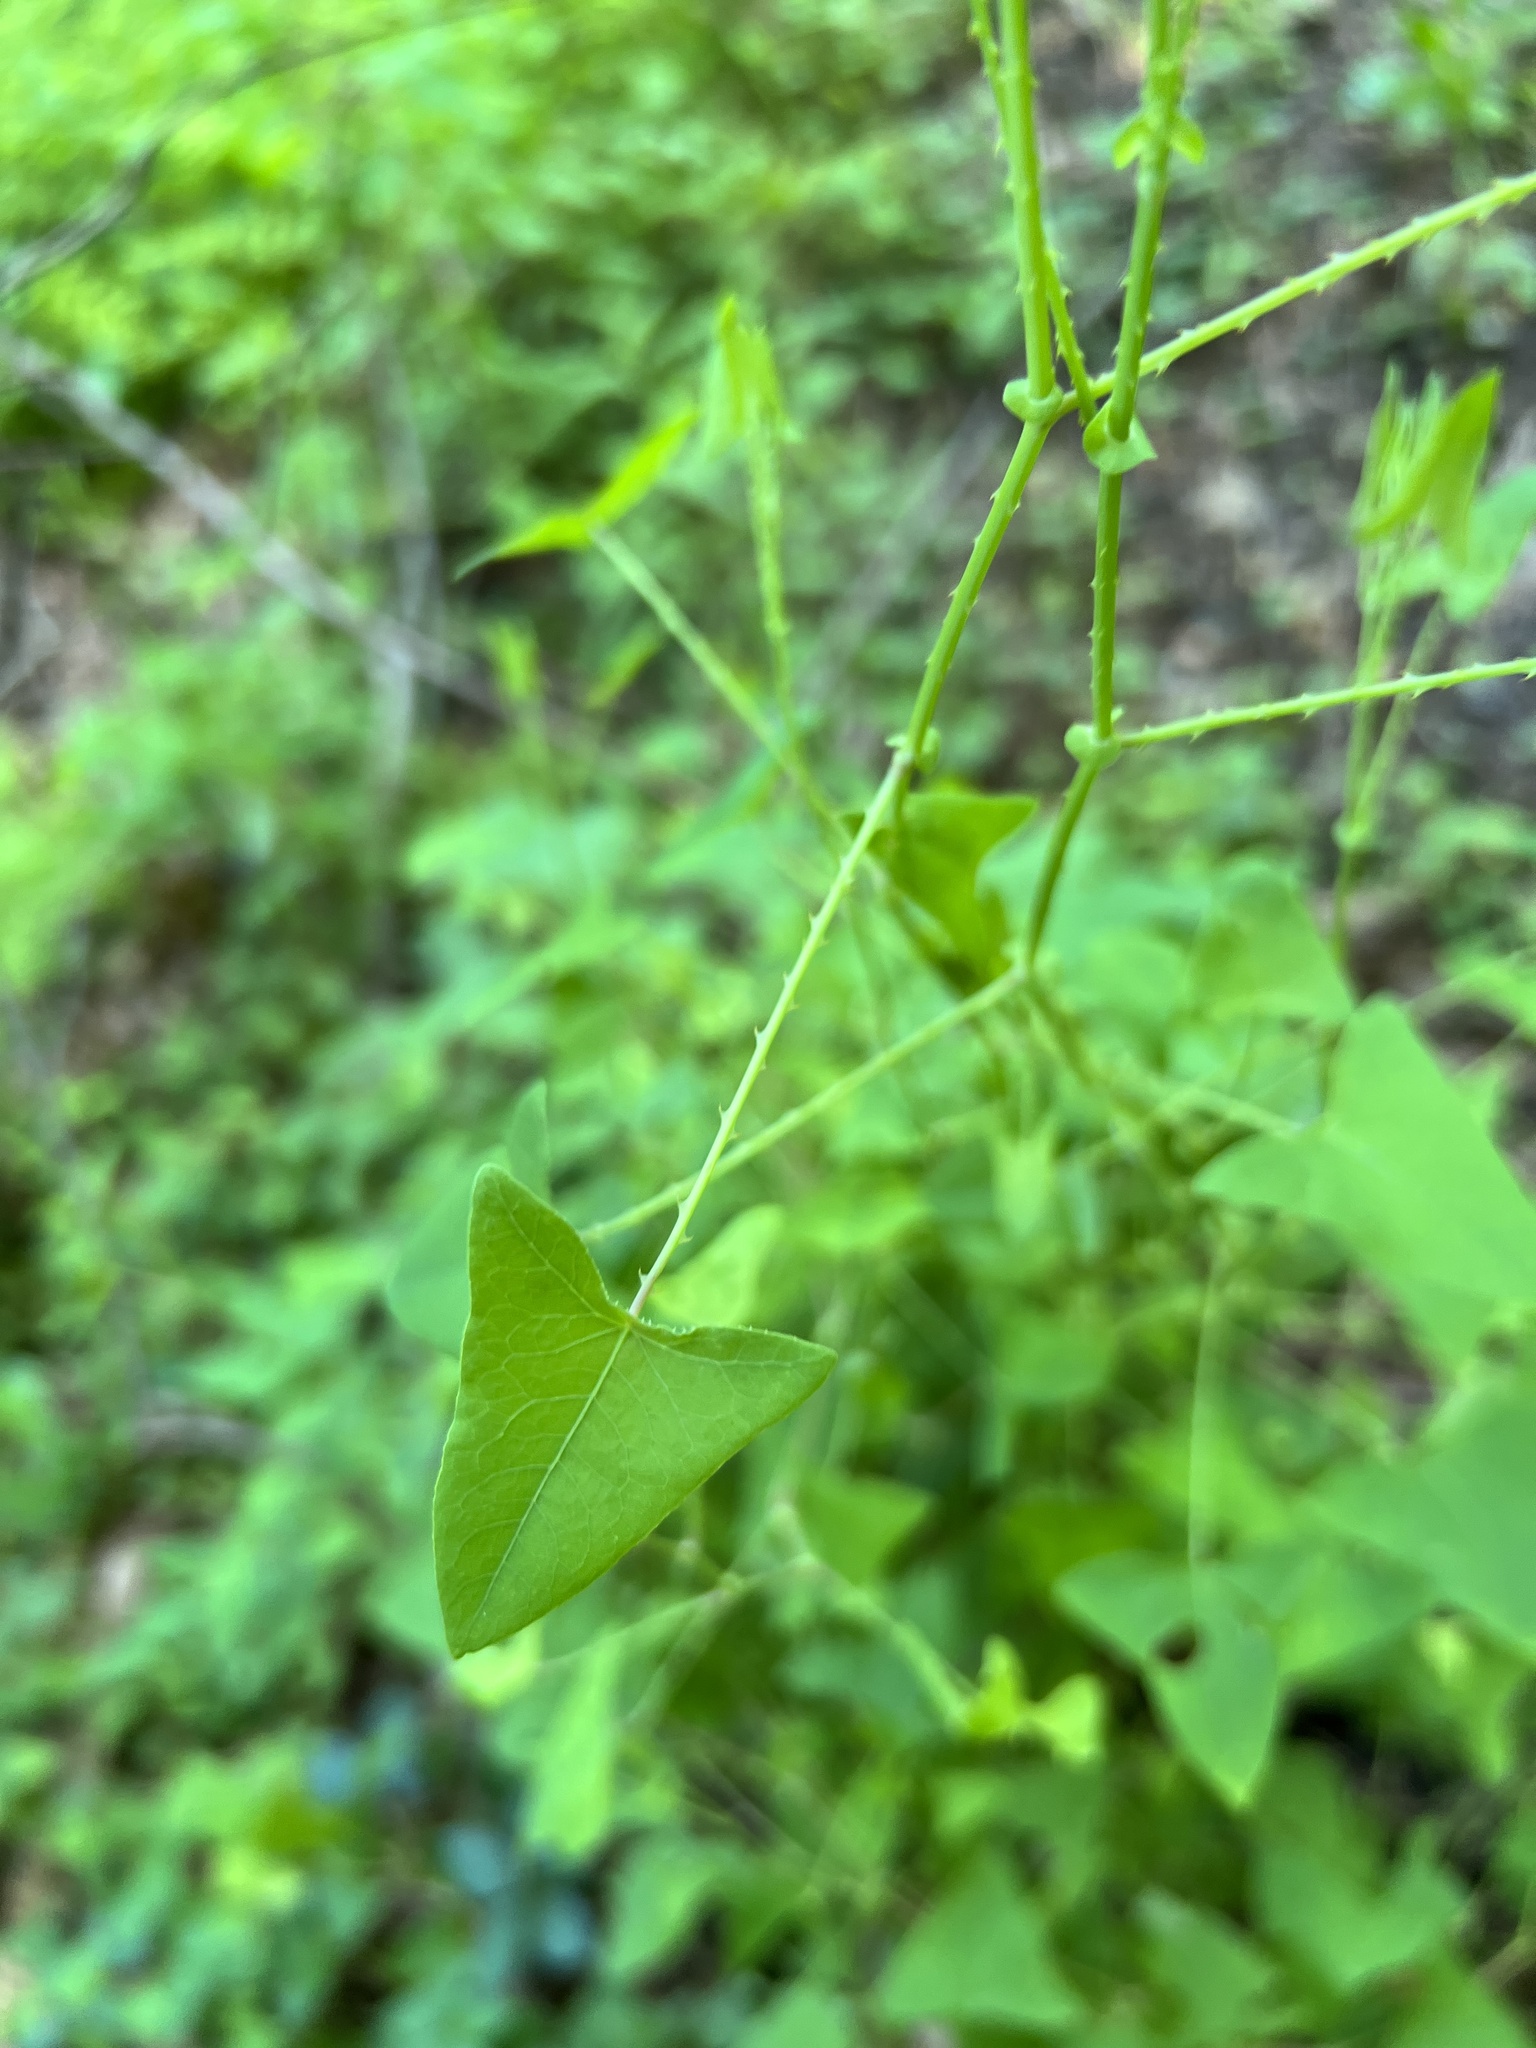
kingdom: Plantae
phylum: Tracheophyta
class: Magnoliopsida
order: Caryophyllales
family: Polygonaceae
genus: Persicaria
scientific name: Persicaria perfoliata
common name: Asiatic tearthumb
